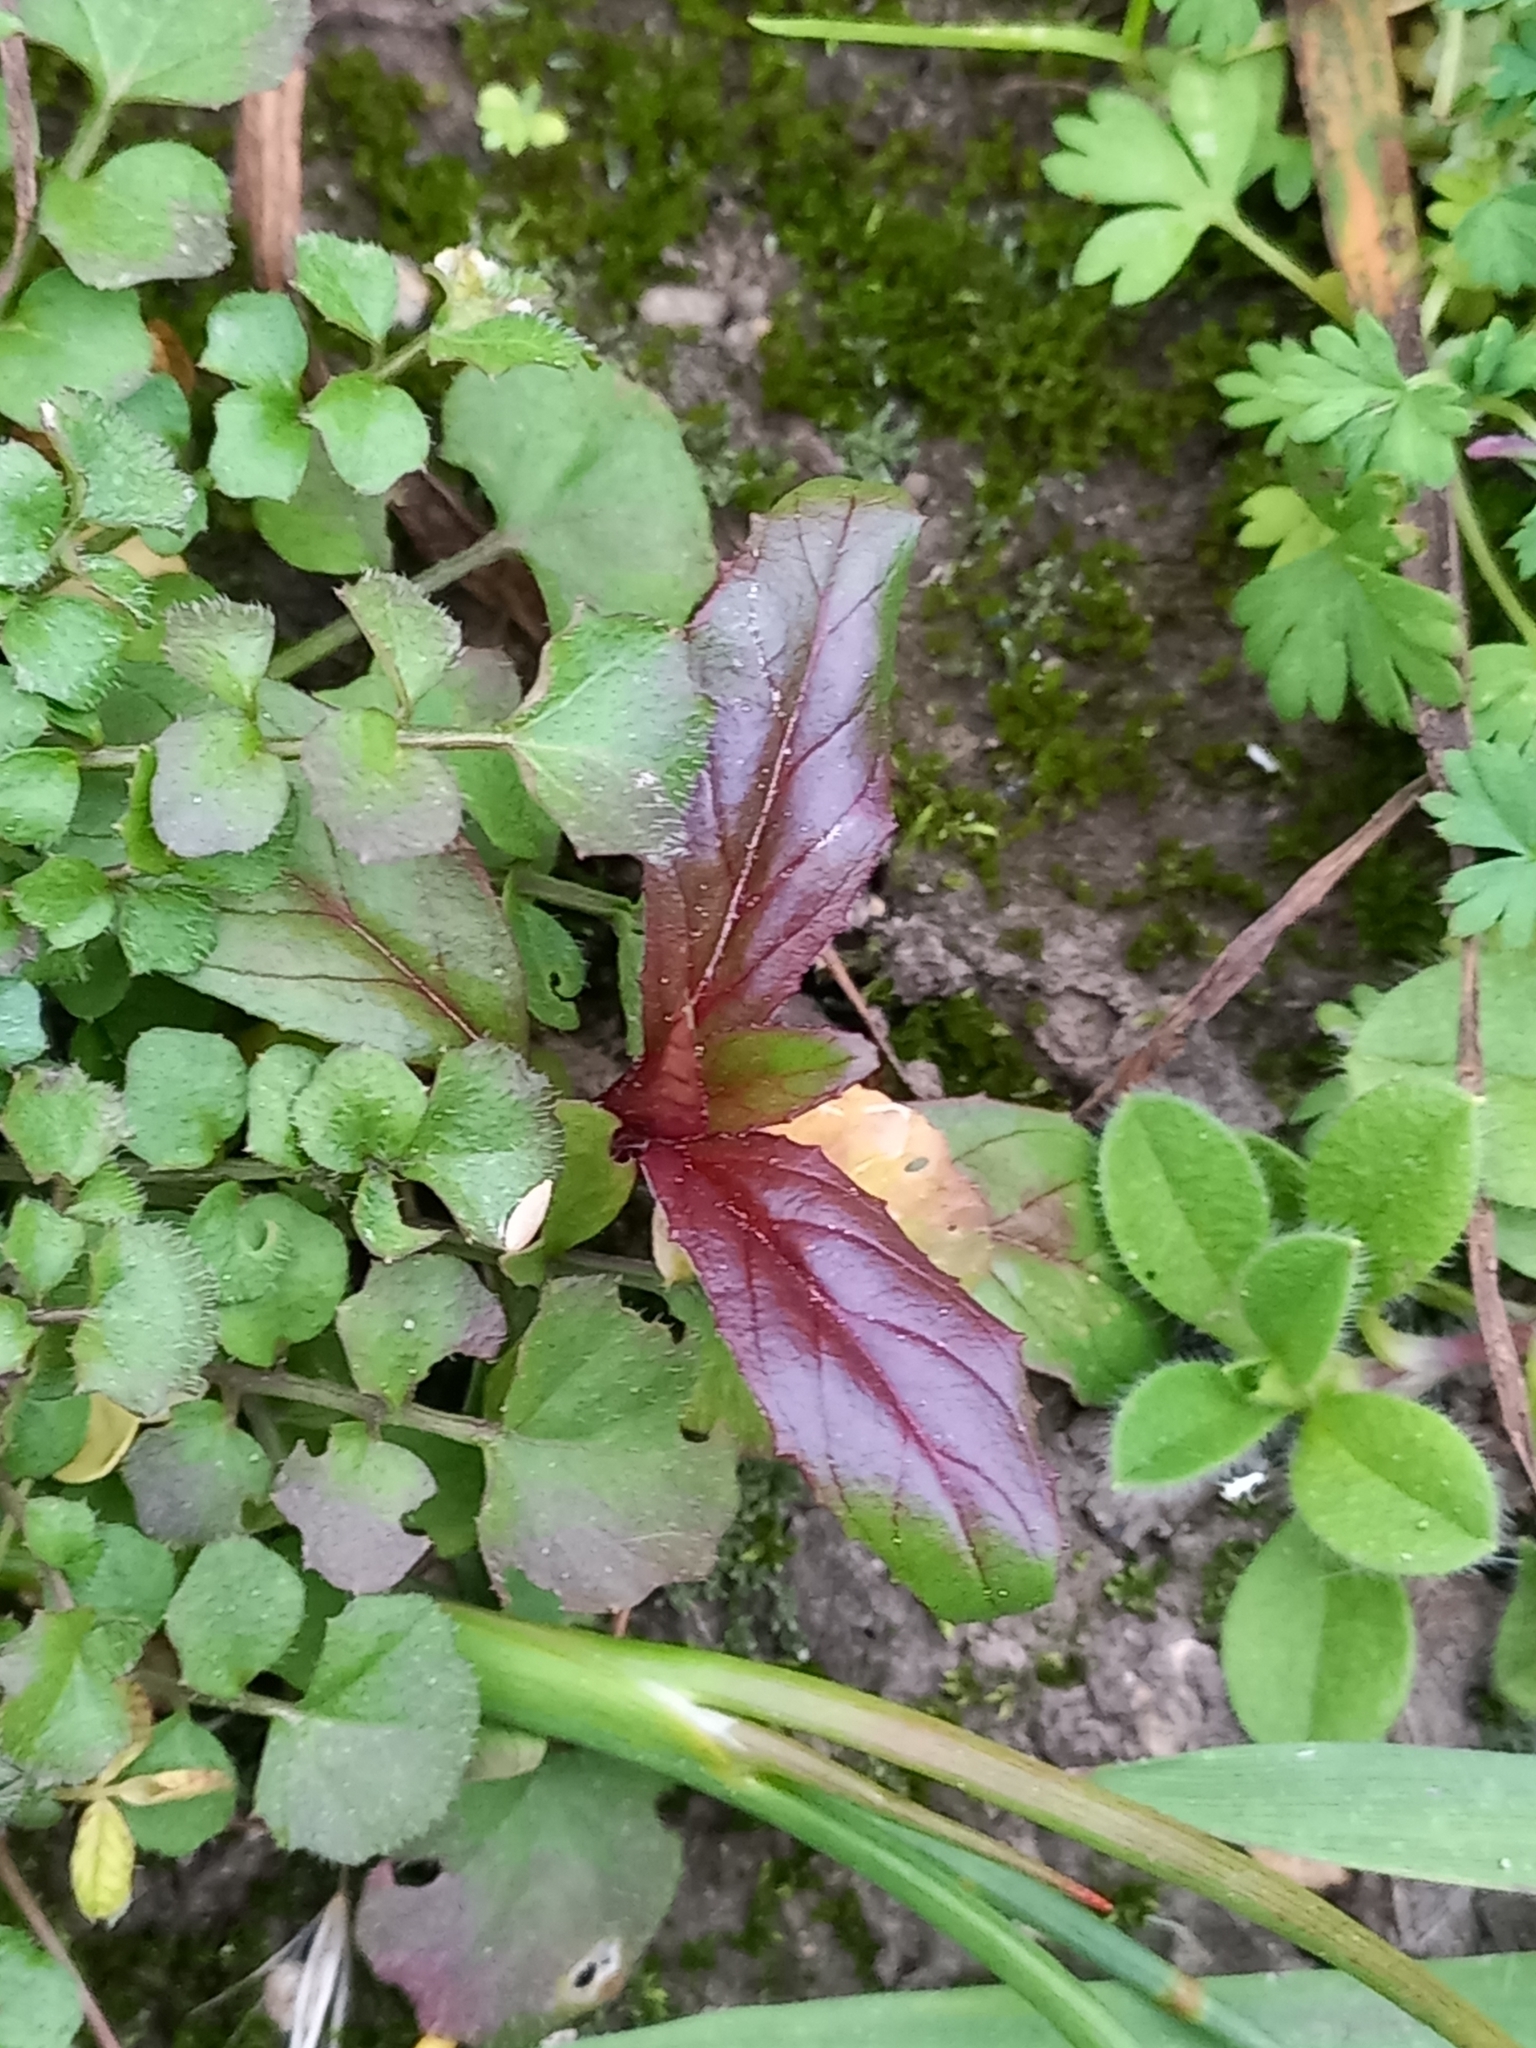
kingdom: Plantae
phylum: Tracheophyta
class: Magnoliopsida
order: Myrtales
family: Onagraceae
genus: Epilobium
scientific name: Epilobium ciliatum
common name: American willowherb
